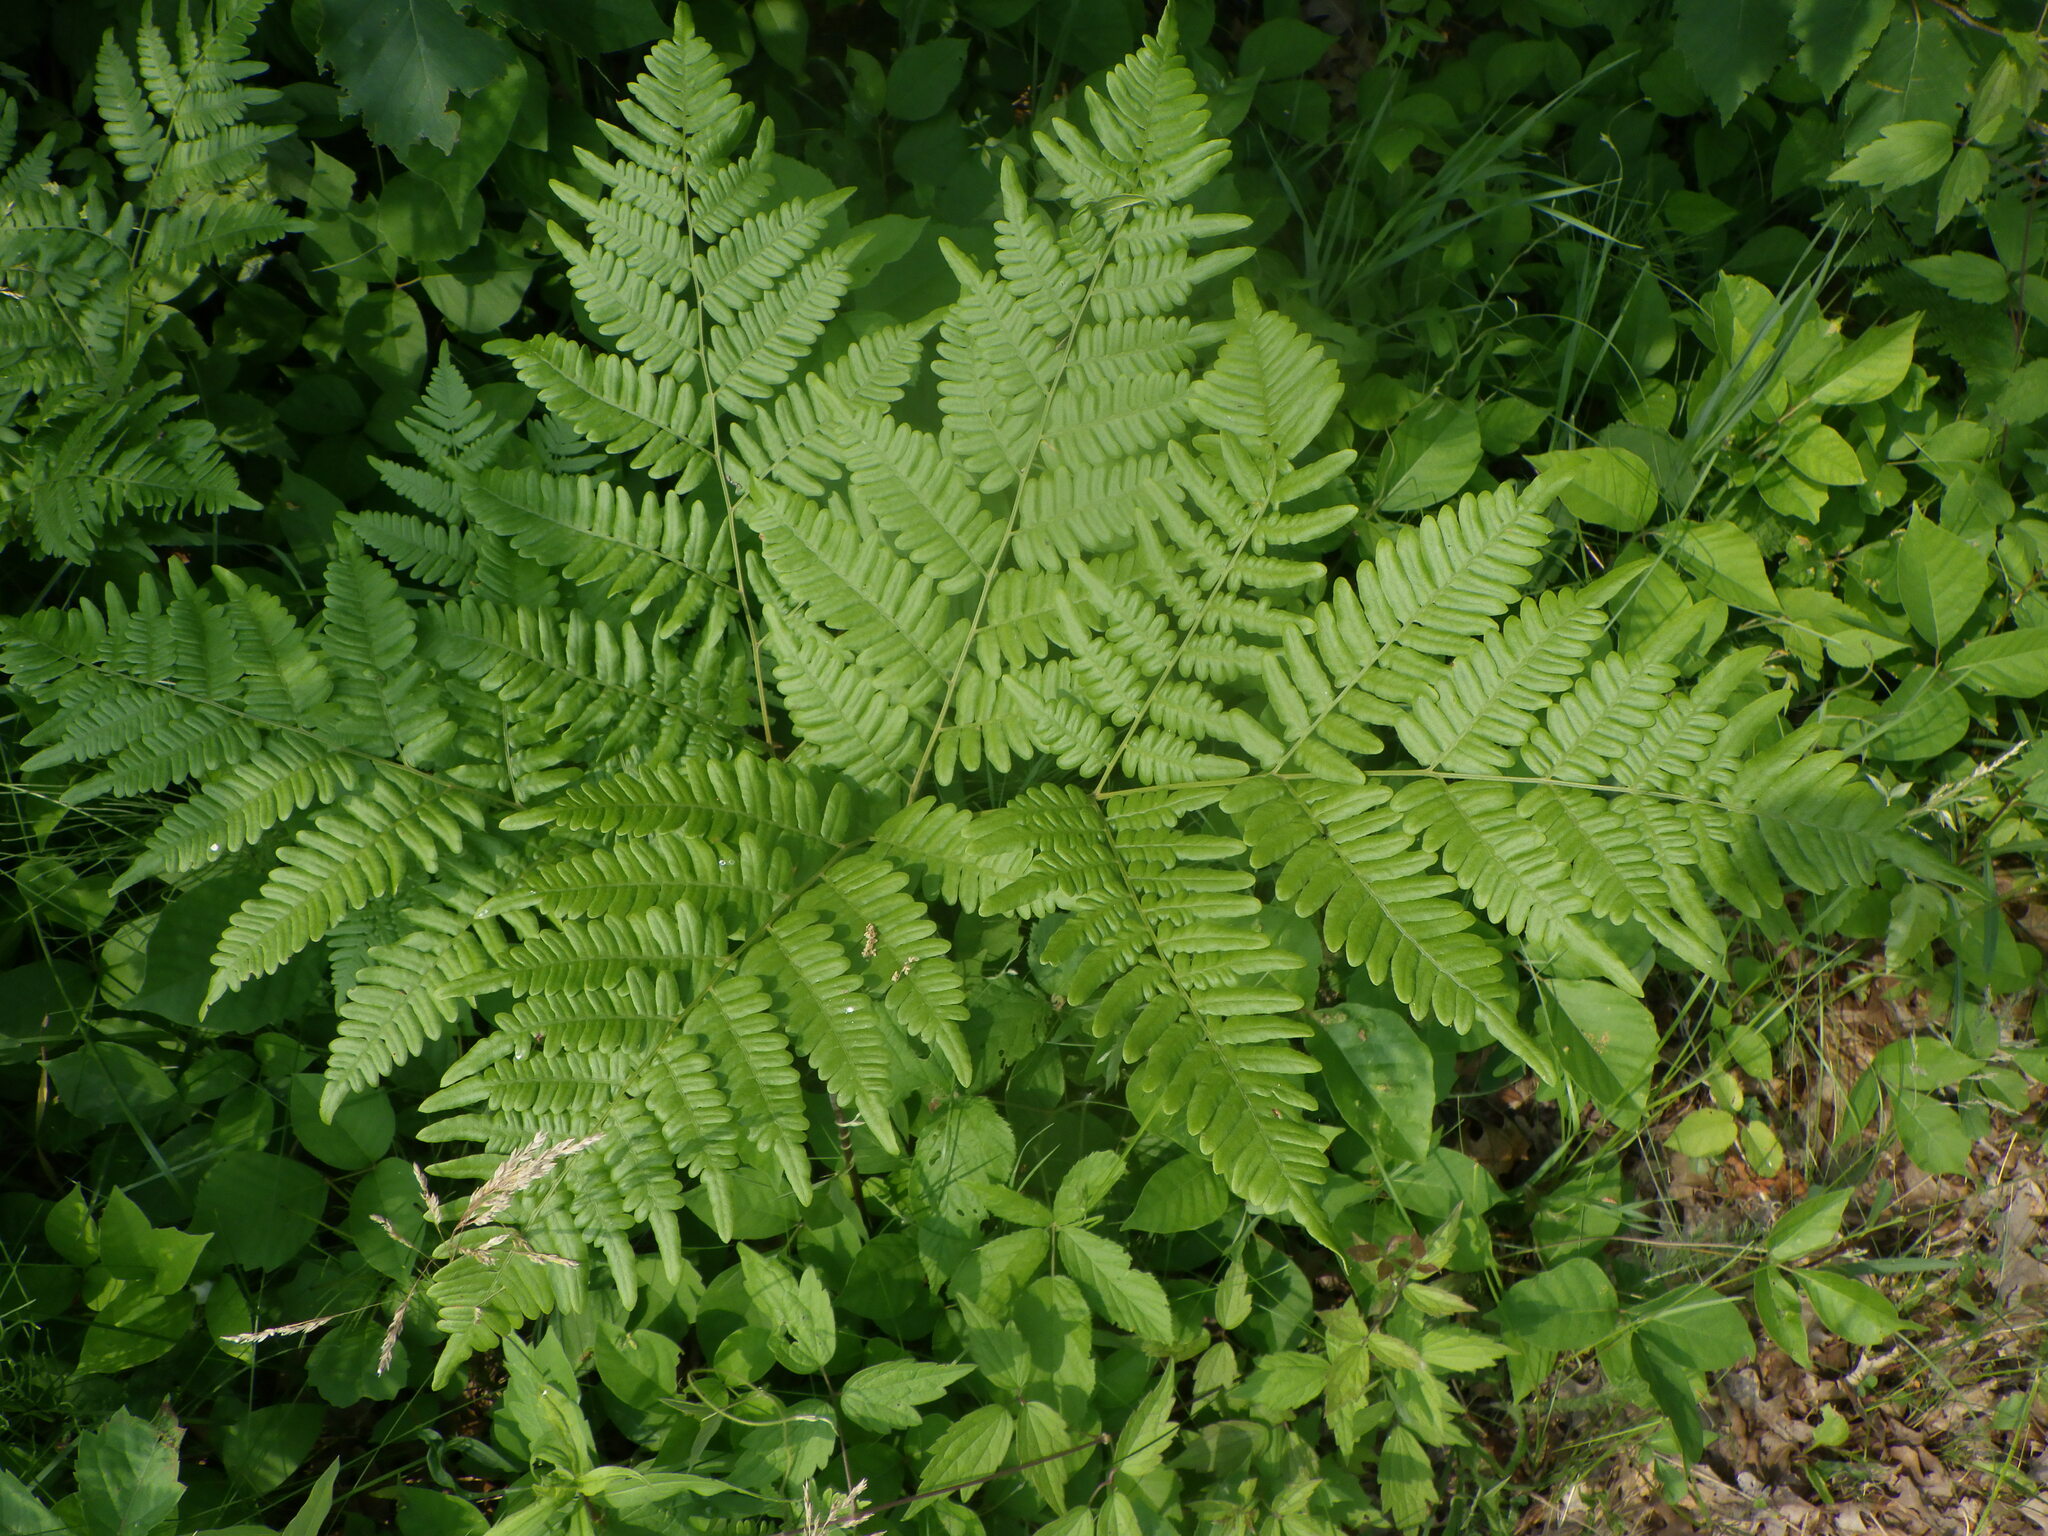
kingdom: Plantae
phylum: Tracheophyta
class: Polypodiopsida
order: Polypodiales
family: Dennstaedtiaceae
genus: Pteridium
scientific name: Pteridium aquilinum
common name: Bracken
